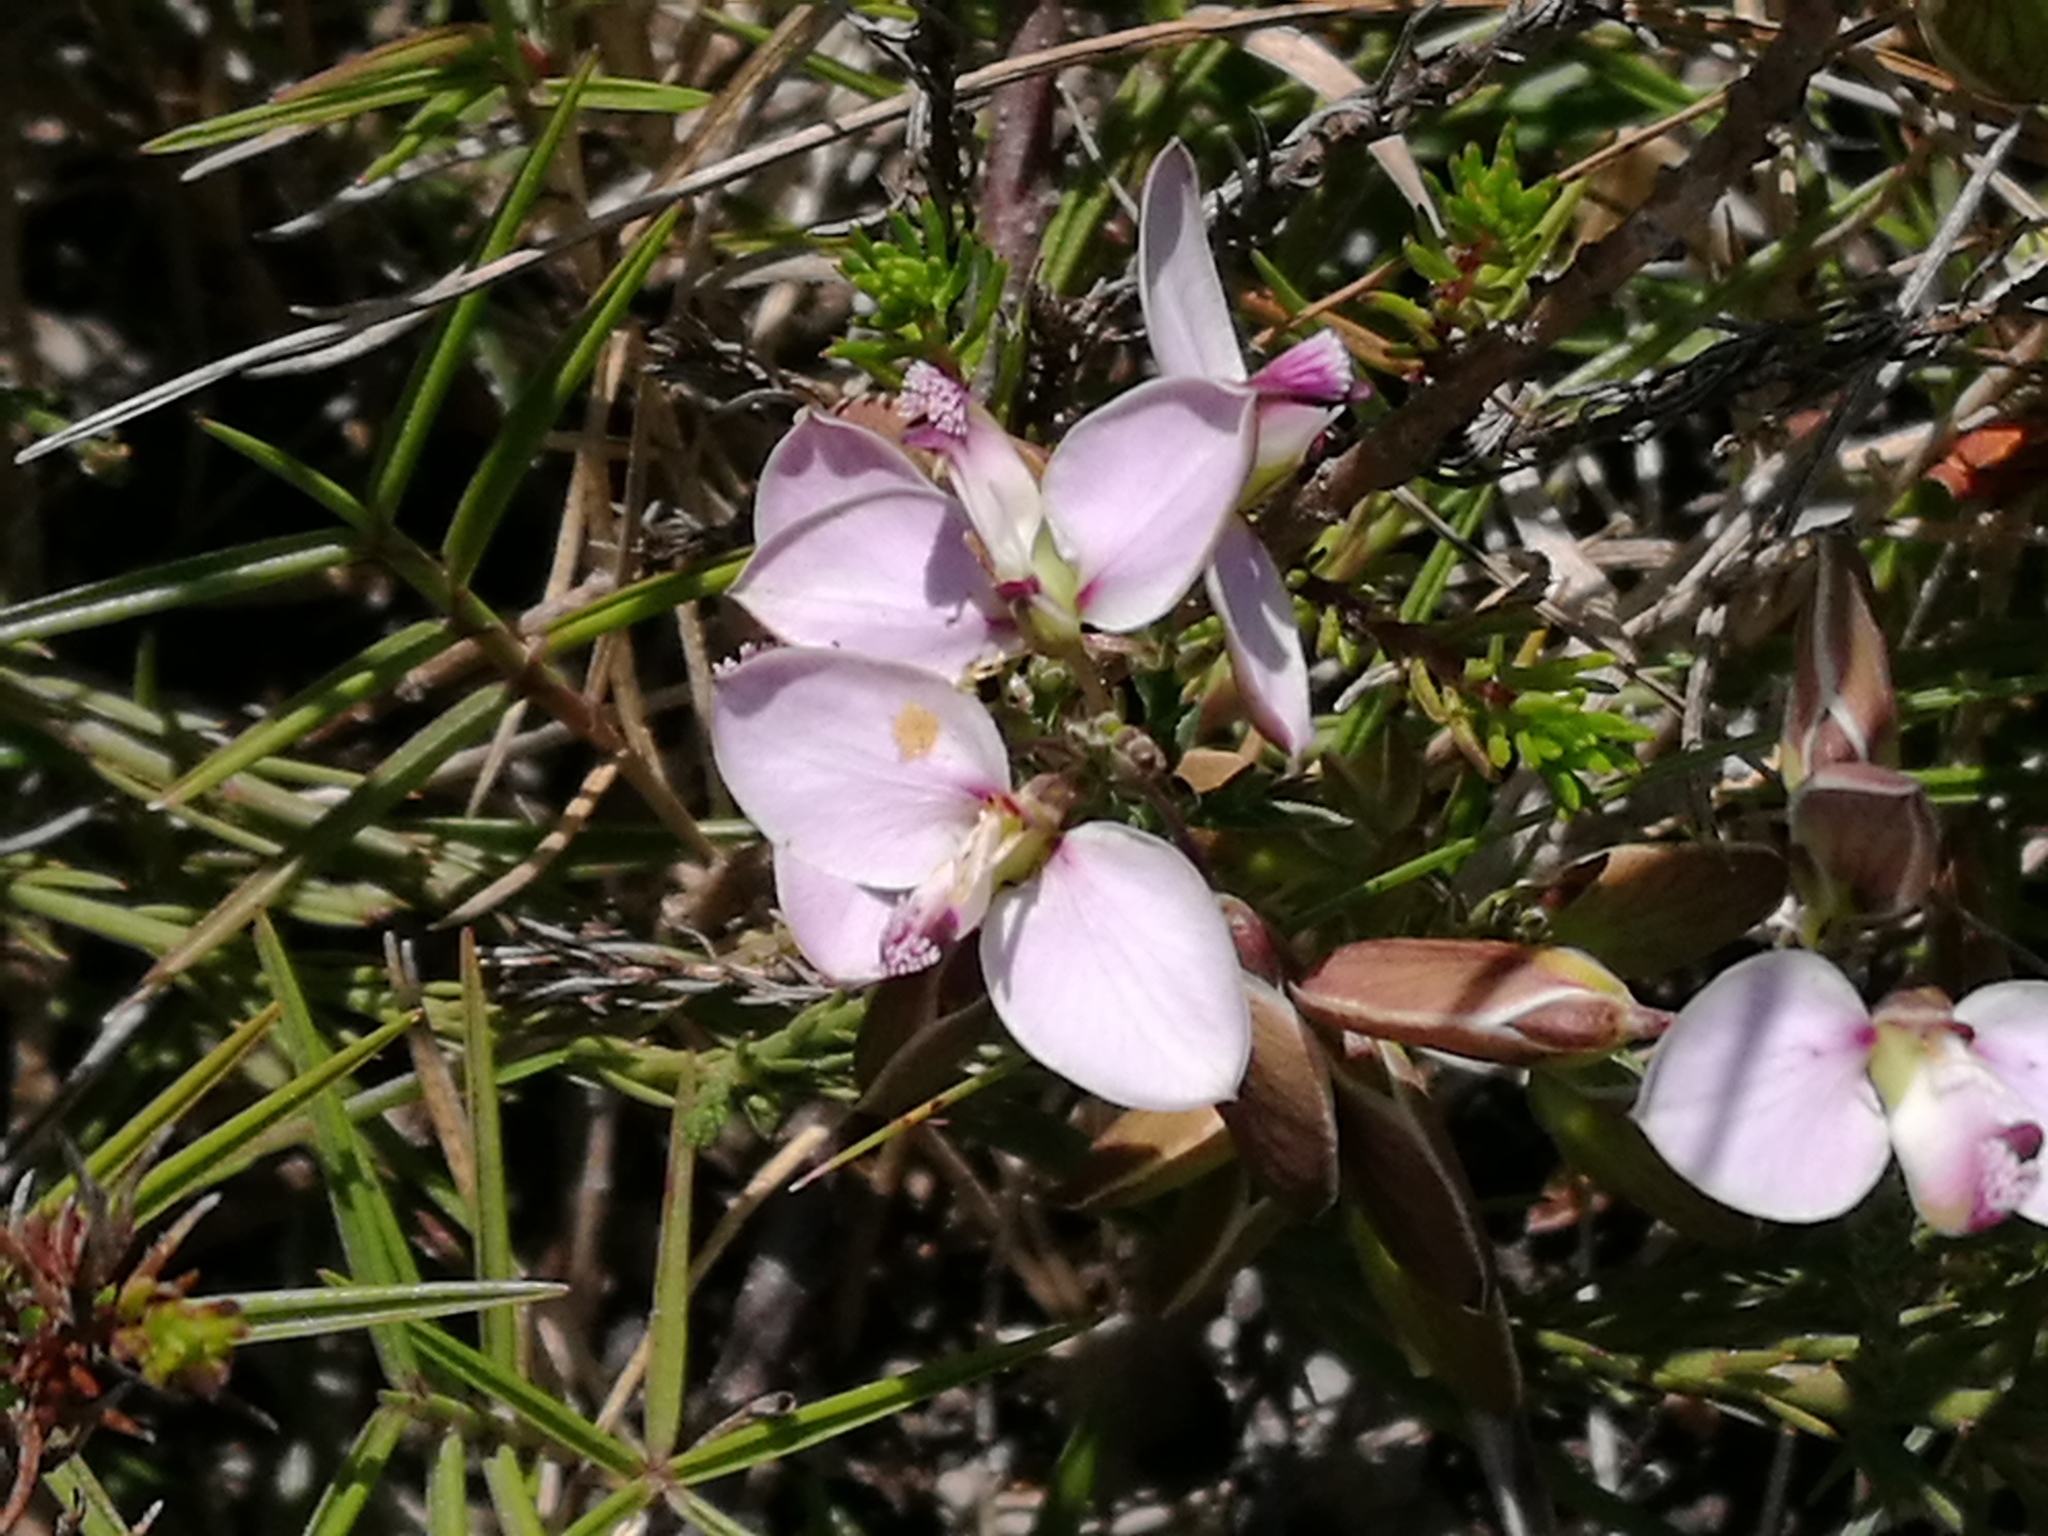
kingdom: Plantae
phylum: Tracheophyta
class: Magnoliopsida
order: Fabales
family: Polygalaceae
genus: Polygala
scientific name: Polygala ericifolia
